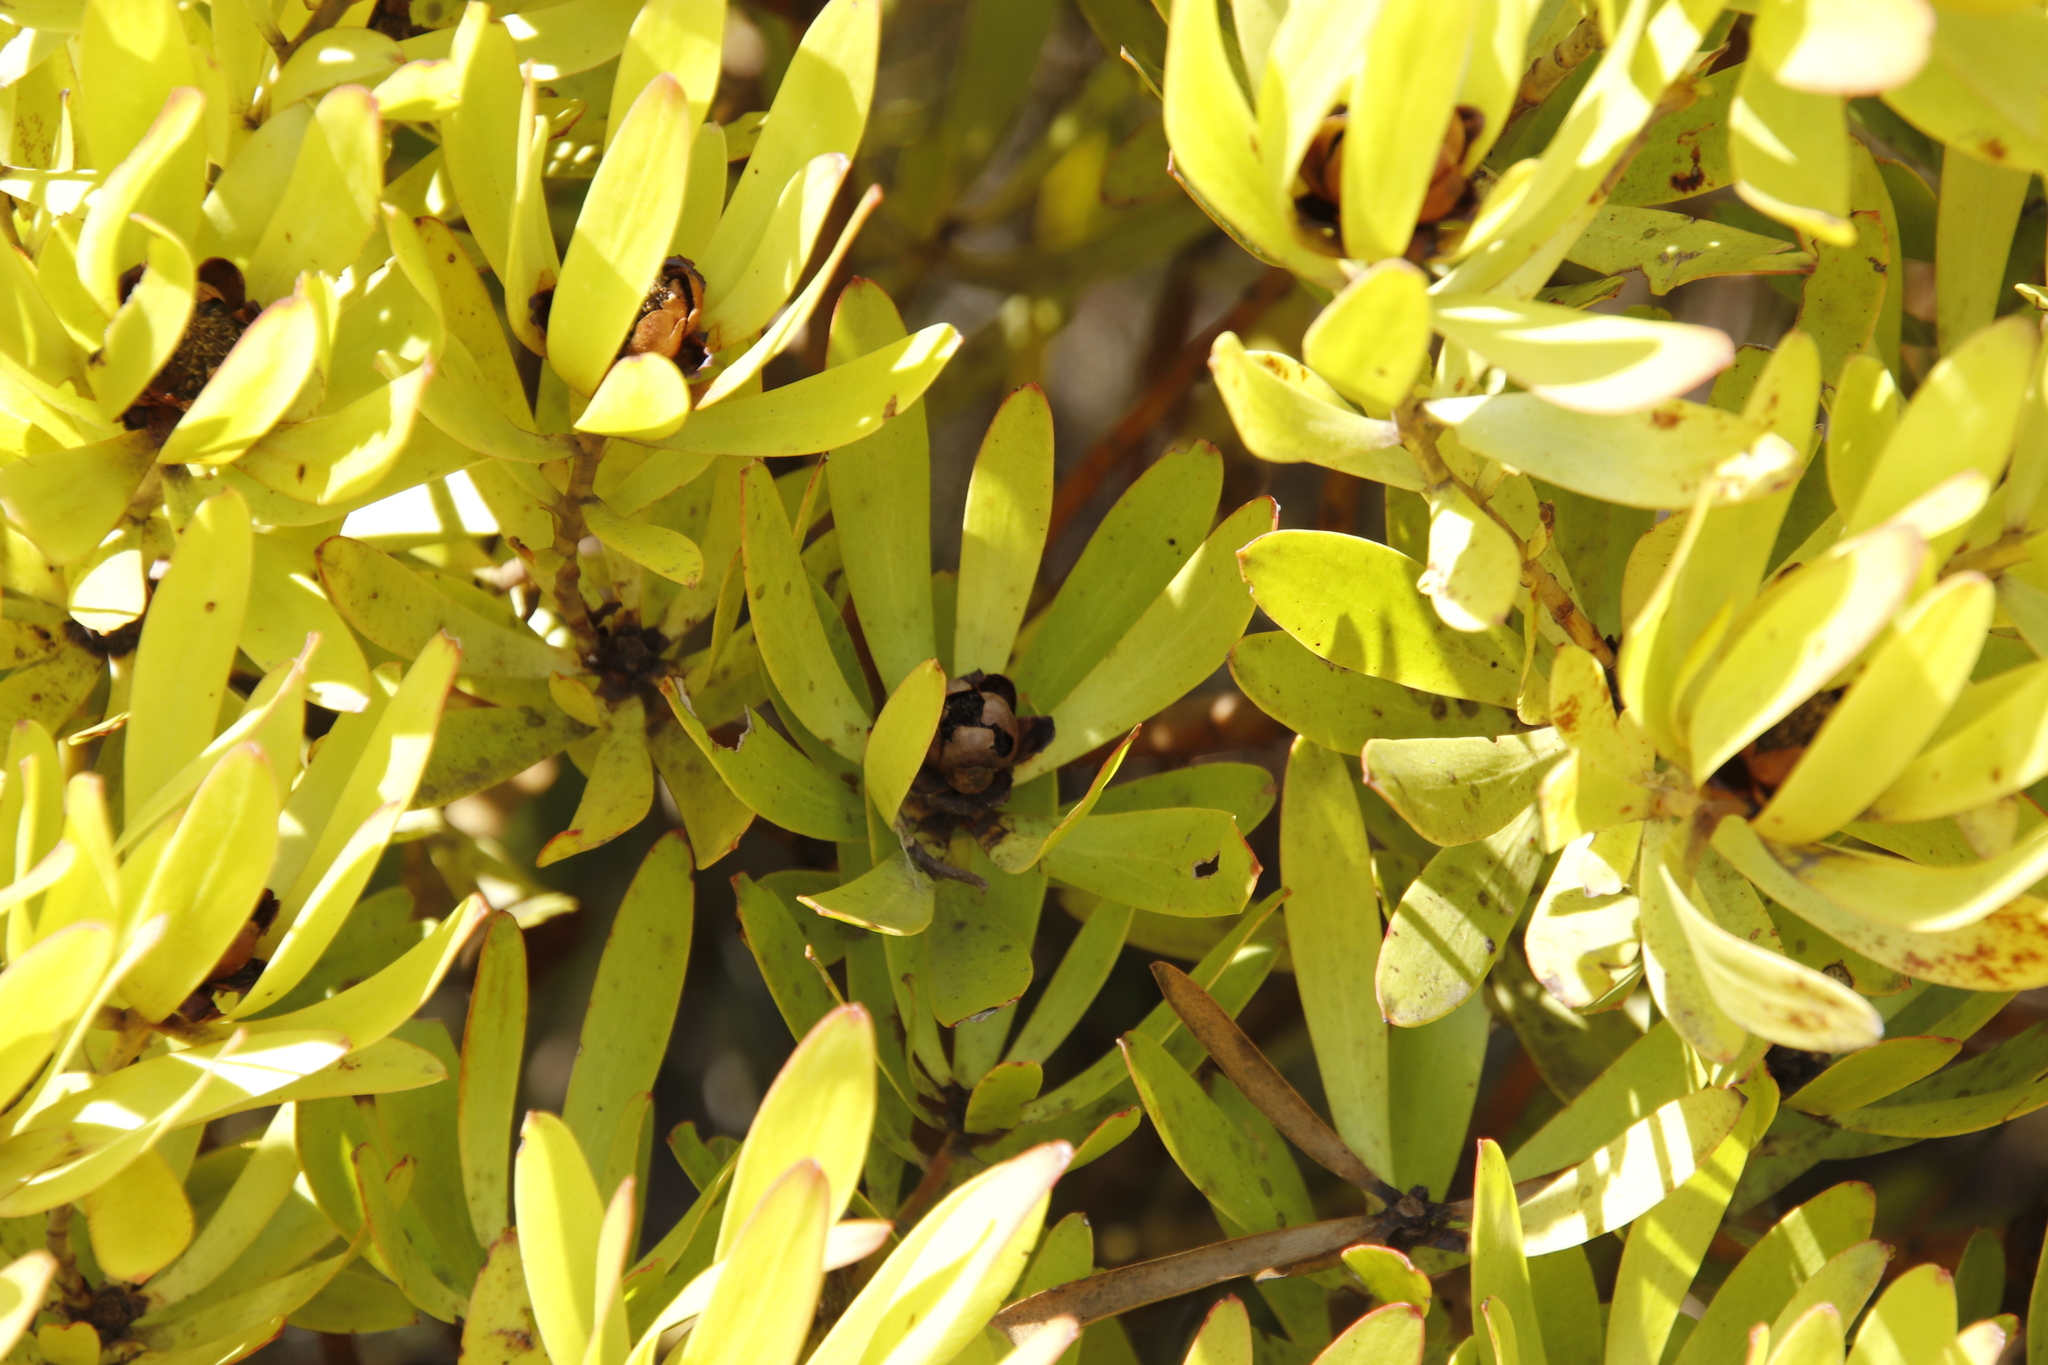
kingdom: Plantae
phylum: Tracheophyta
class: Magnoliopsida
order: Proteales
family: Proteaceae
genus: Leucadendron
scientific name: Leucadendron microcephalum
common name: Oilbract conebush
